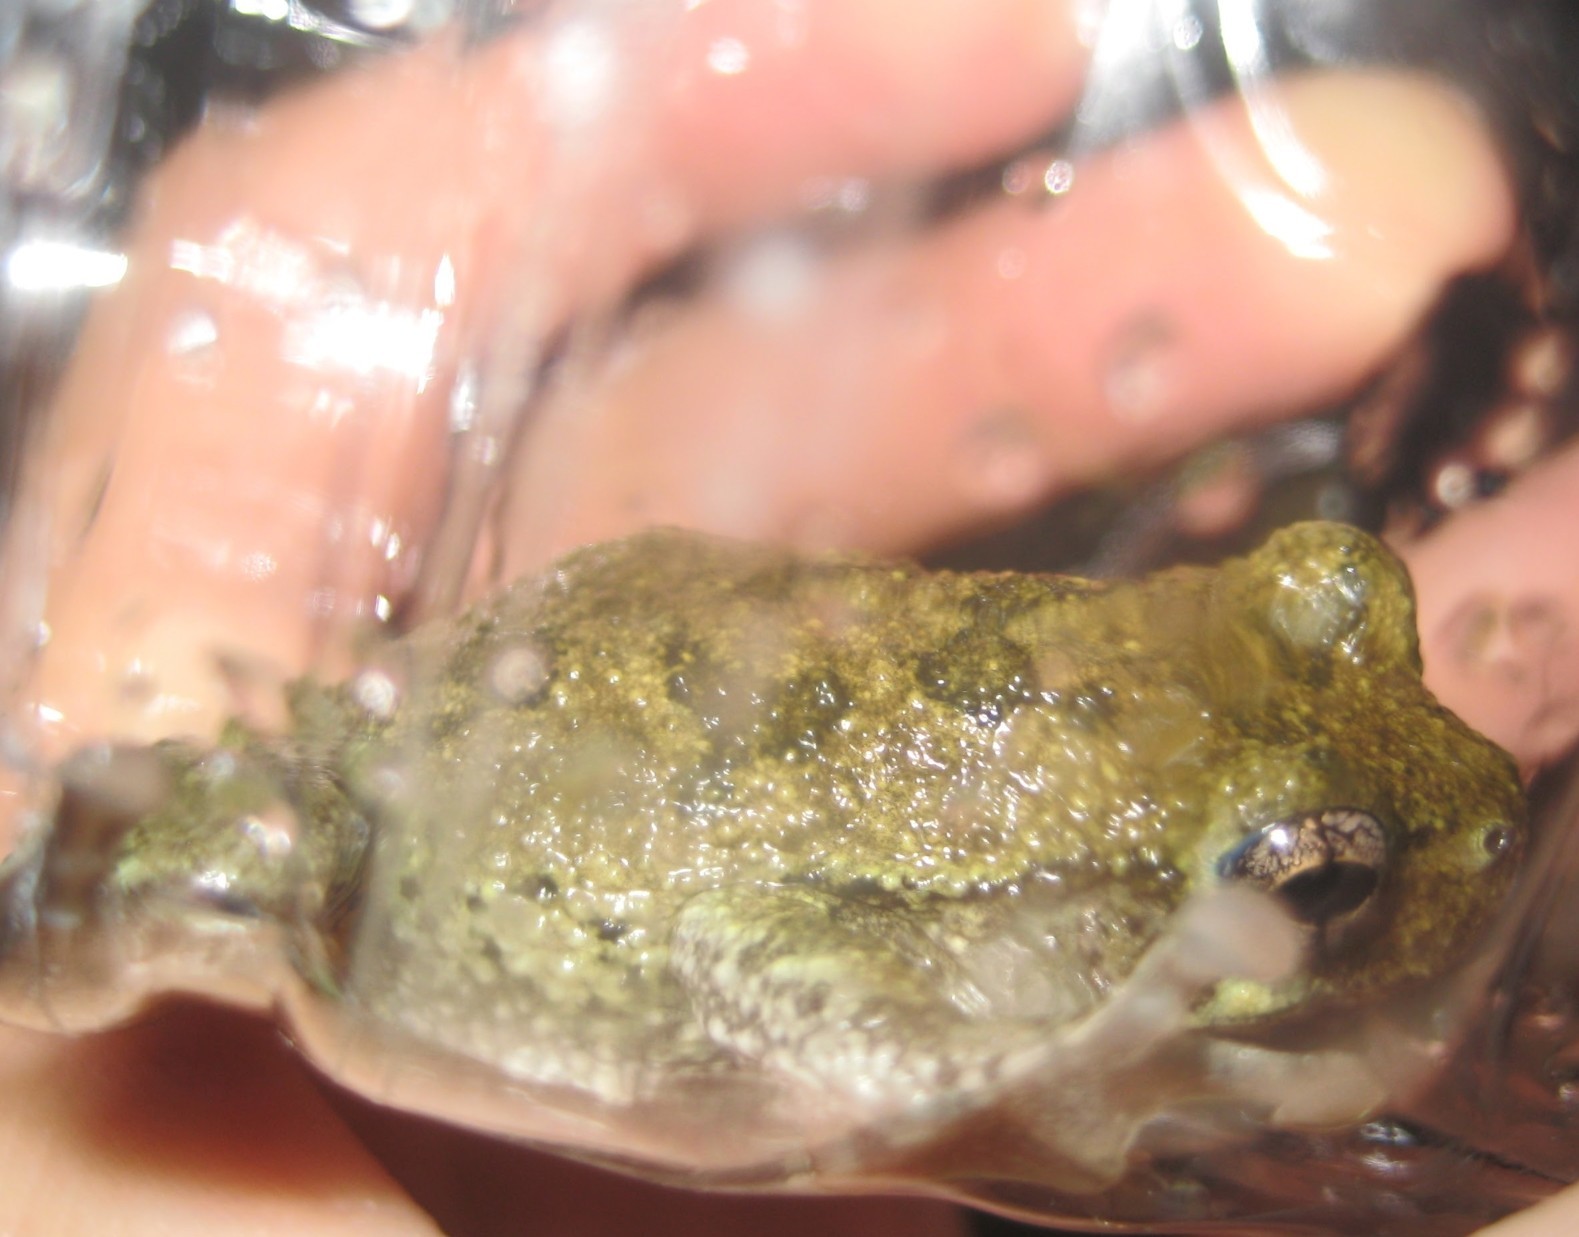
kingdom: Animalia
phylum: Chordata
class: Amphibia
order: Anura
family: Hylidae
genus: Hyla
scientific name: Hyla
